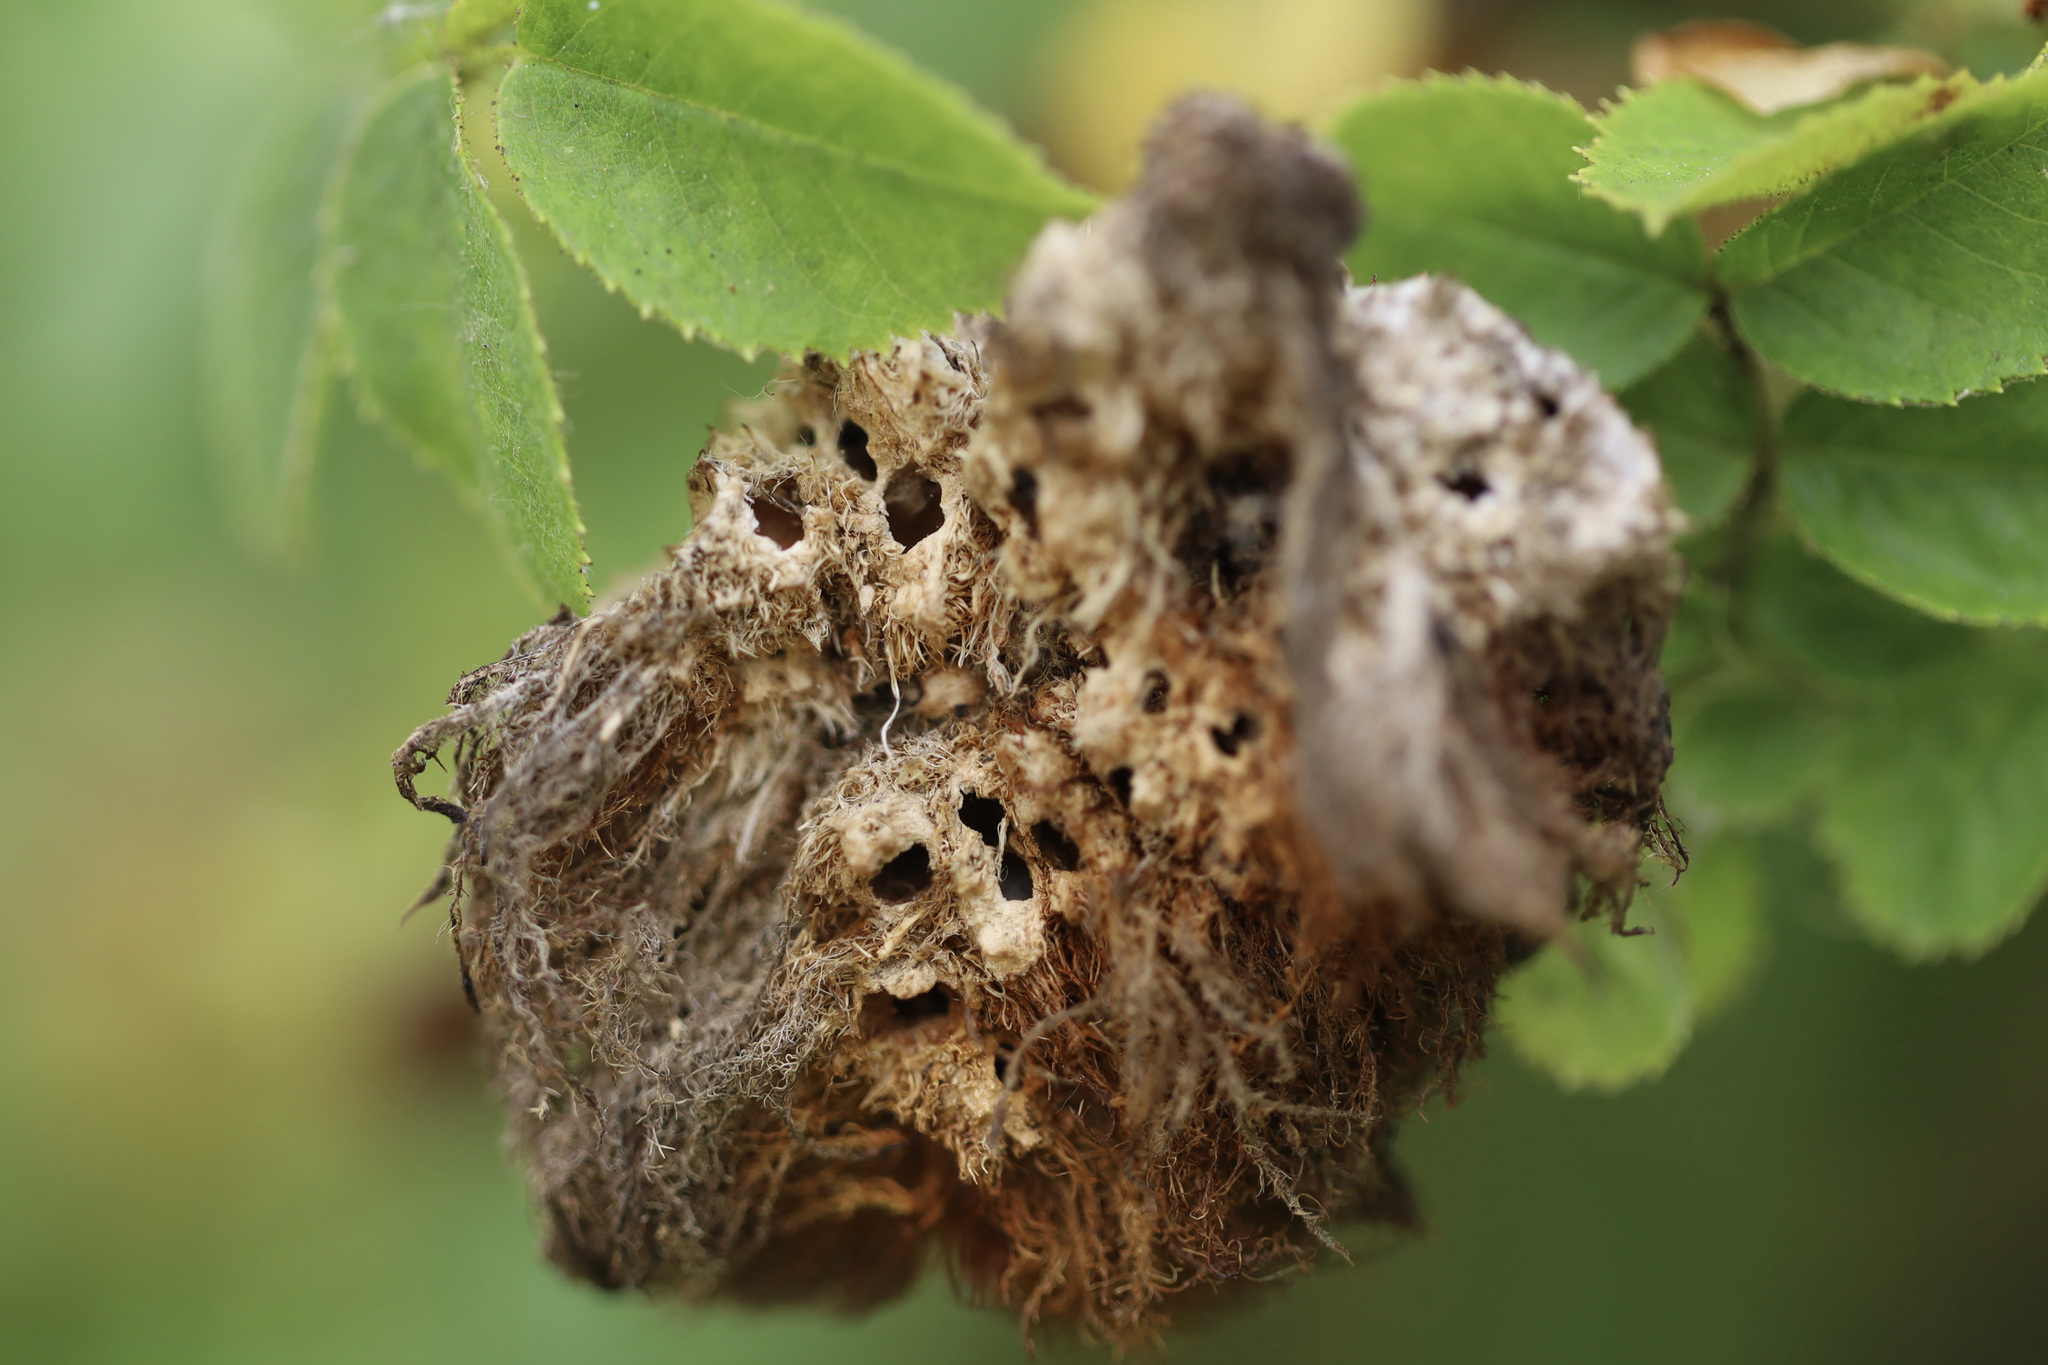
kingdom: Animalia
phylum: Arthropoda
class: Insecta
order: Hymenoptera
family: Cynipidae
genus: Diplolepis
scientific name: Diplolepis rosae
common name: Bedeguar gall
